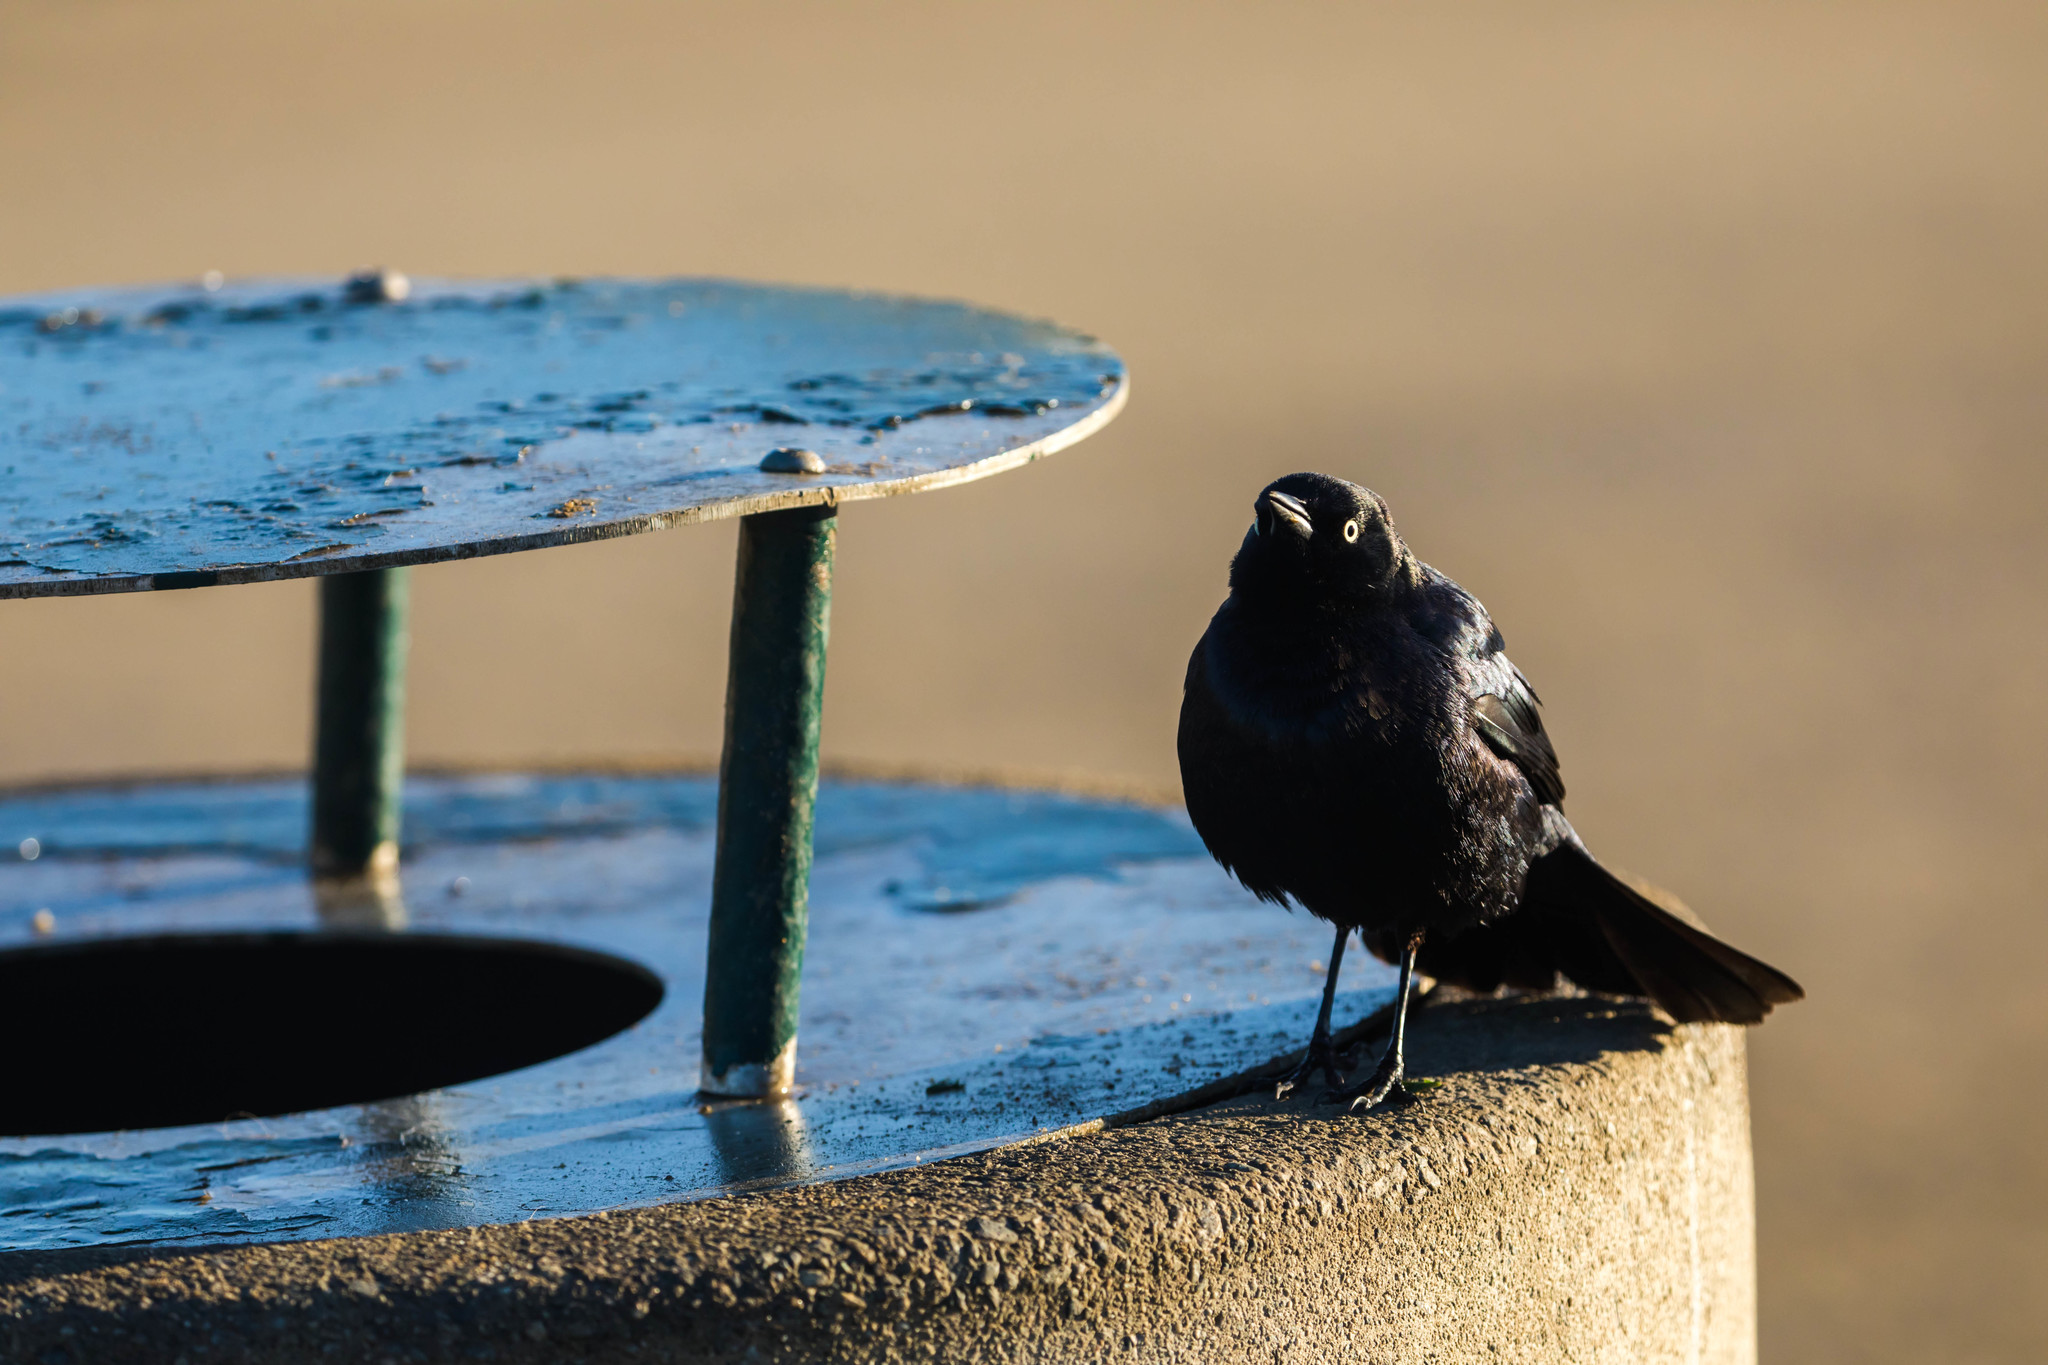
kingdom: Animalia
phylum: Chordata
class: Aves
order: Passeriformes
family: Icteridae
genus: Euphagus
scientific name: Euphagus cyanocephalus
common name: Brewer's blackbird
